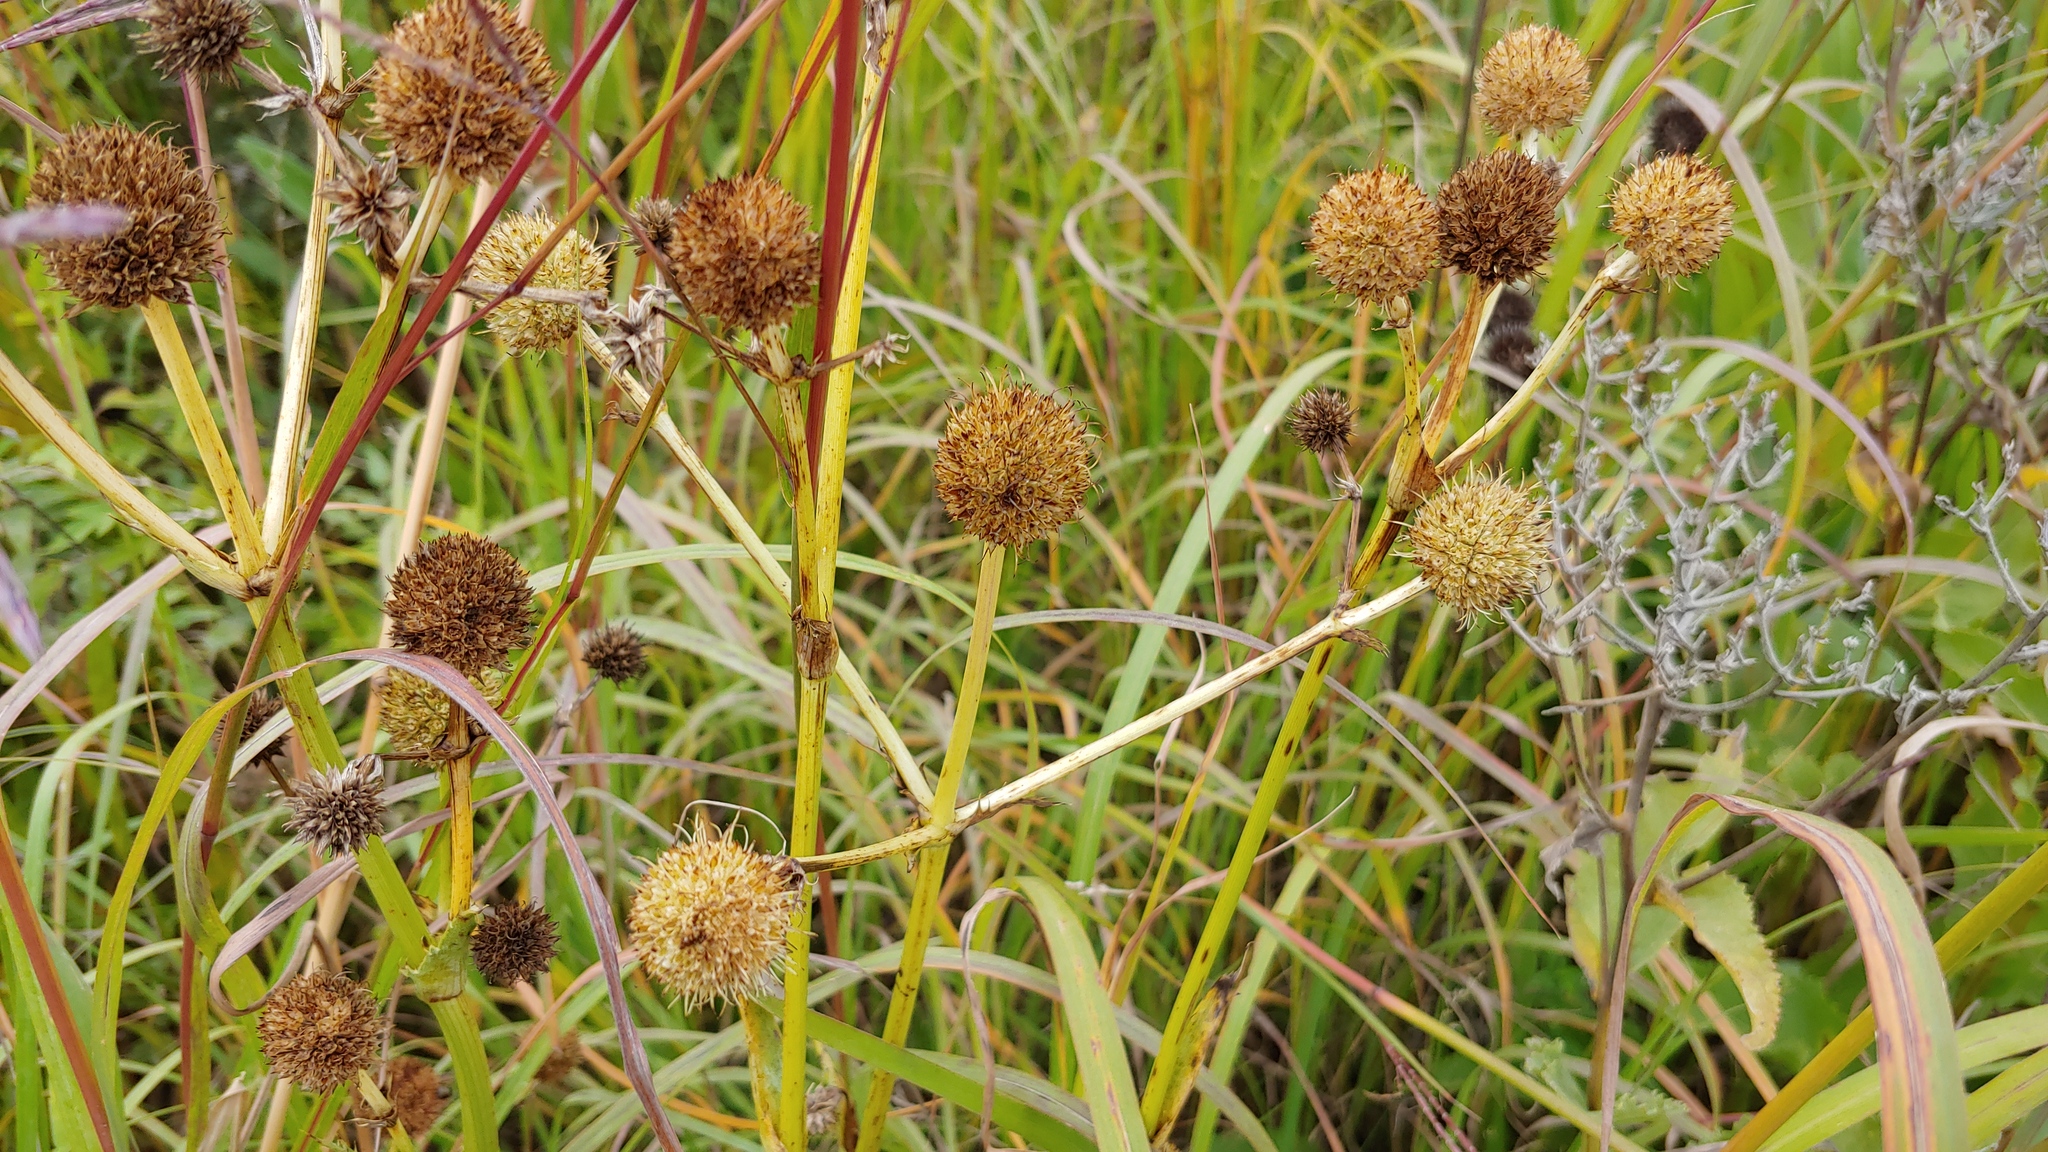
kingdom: Plantae
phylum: Tracheophyta
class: Magnoliopsida
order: Apiales
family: Apiaceae
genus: Eryngium
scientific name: Eryngium yuccifolium
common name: Button eryngo
